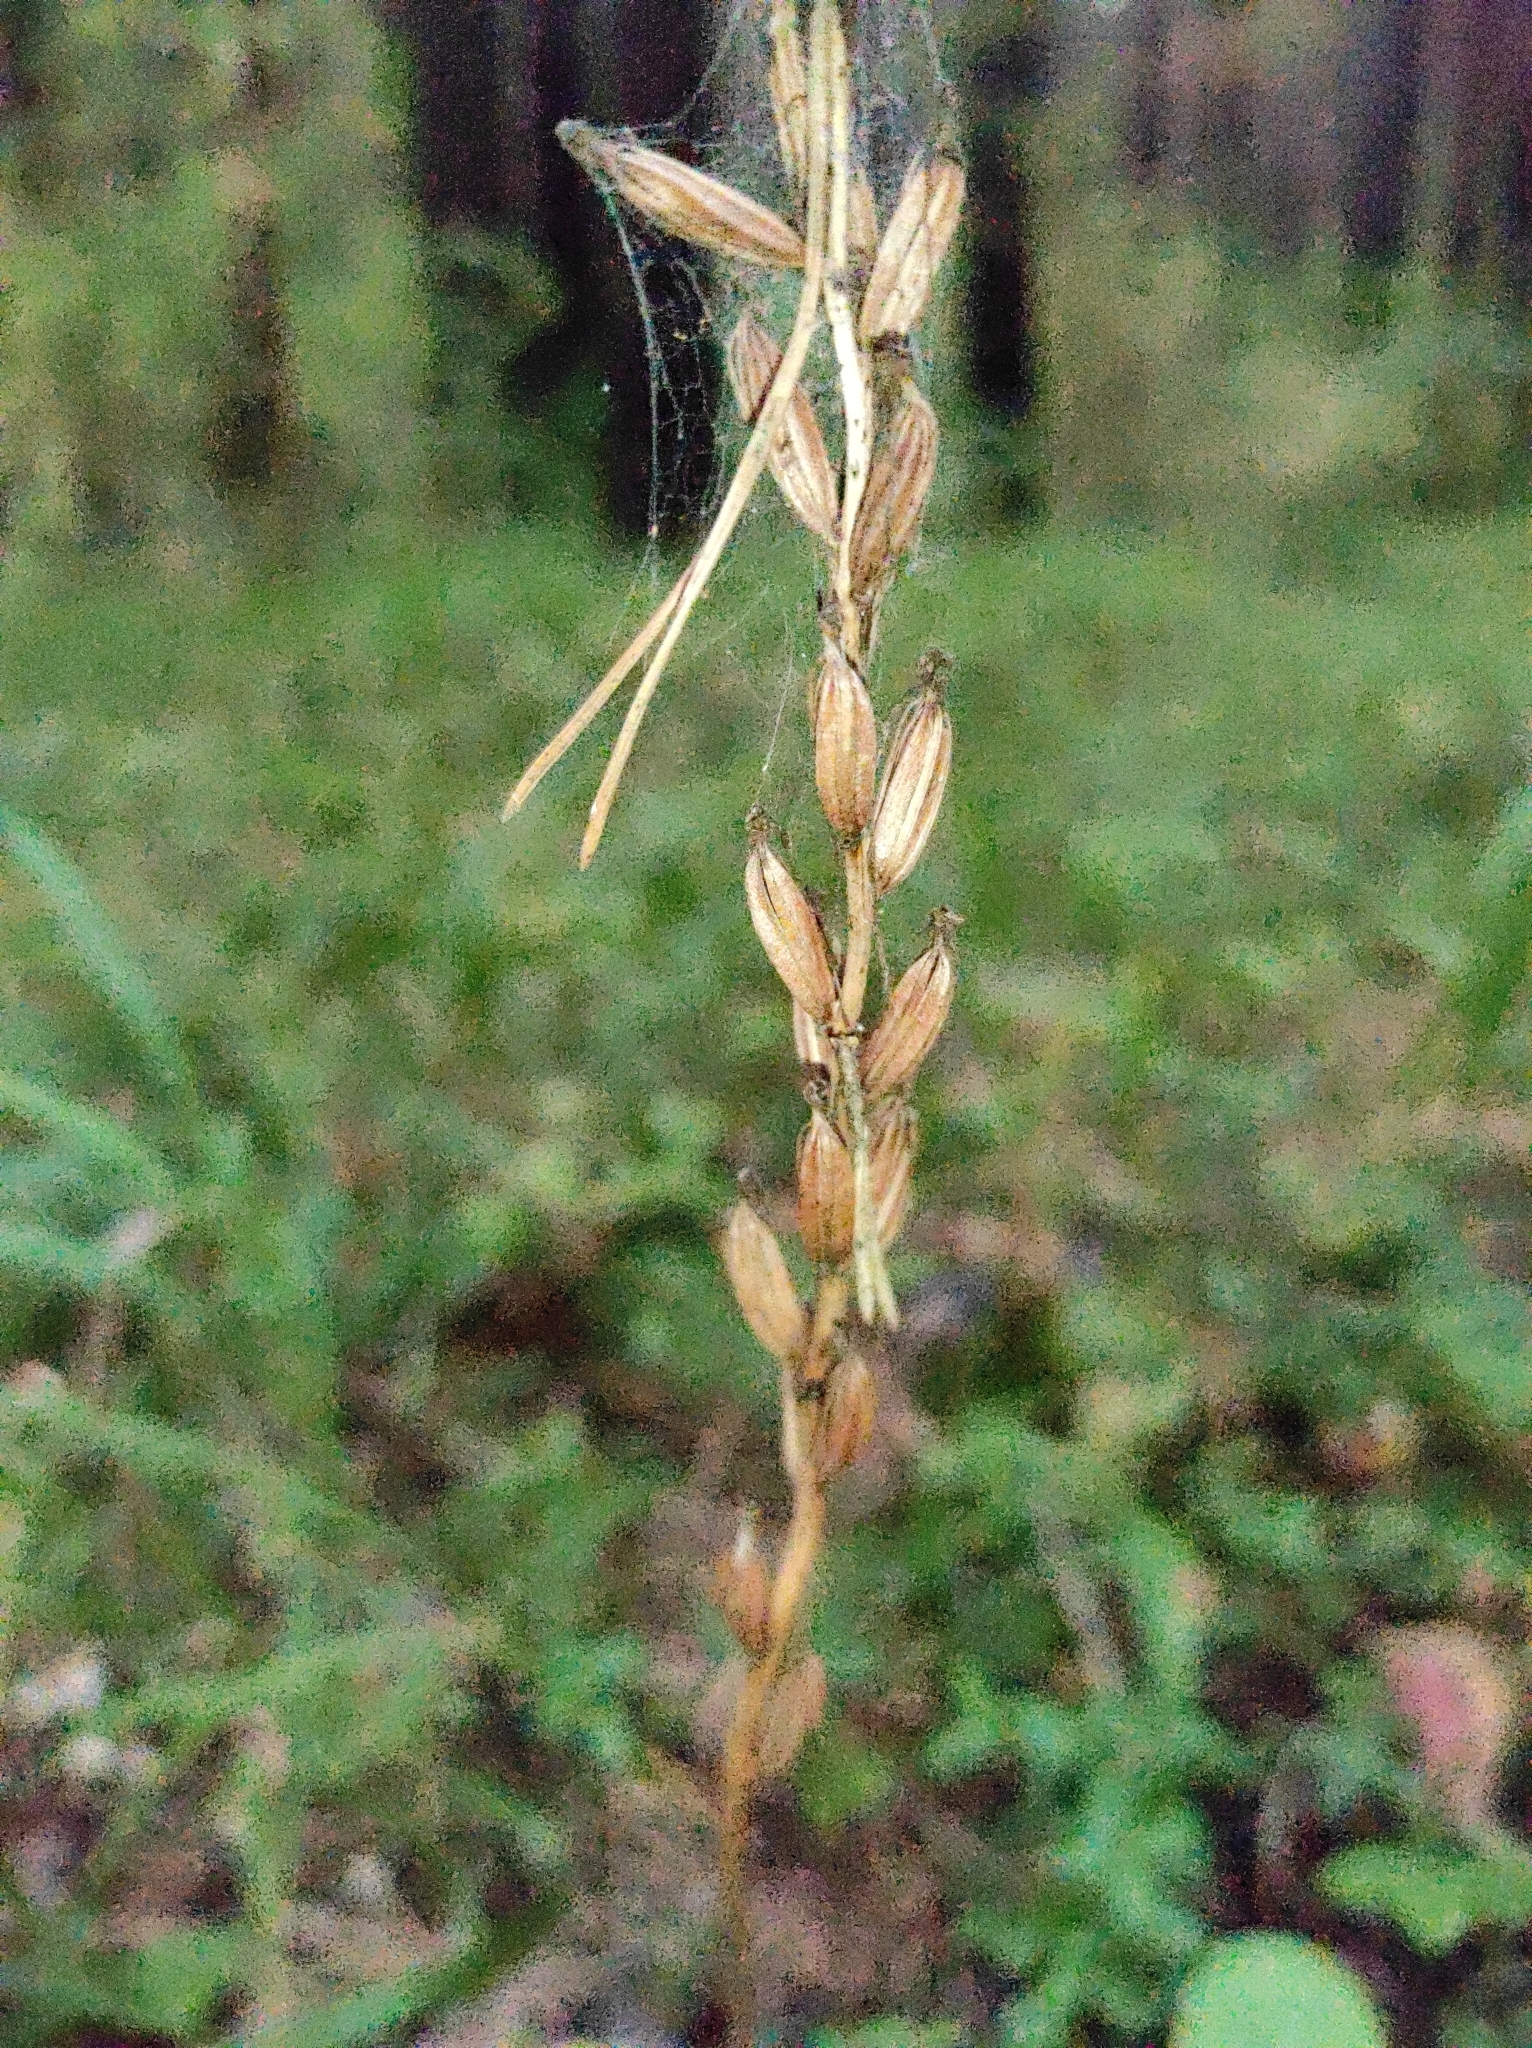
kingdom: Plantae
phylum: Tracheophyta
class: Liliopsida
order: Asparagales
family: Orchidaceae
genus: Platanthera
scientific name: Platanthera bifolia
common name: Lesser butterfly-orchid
